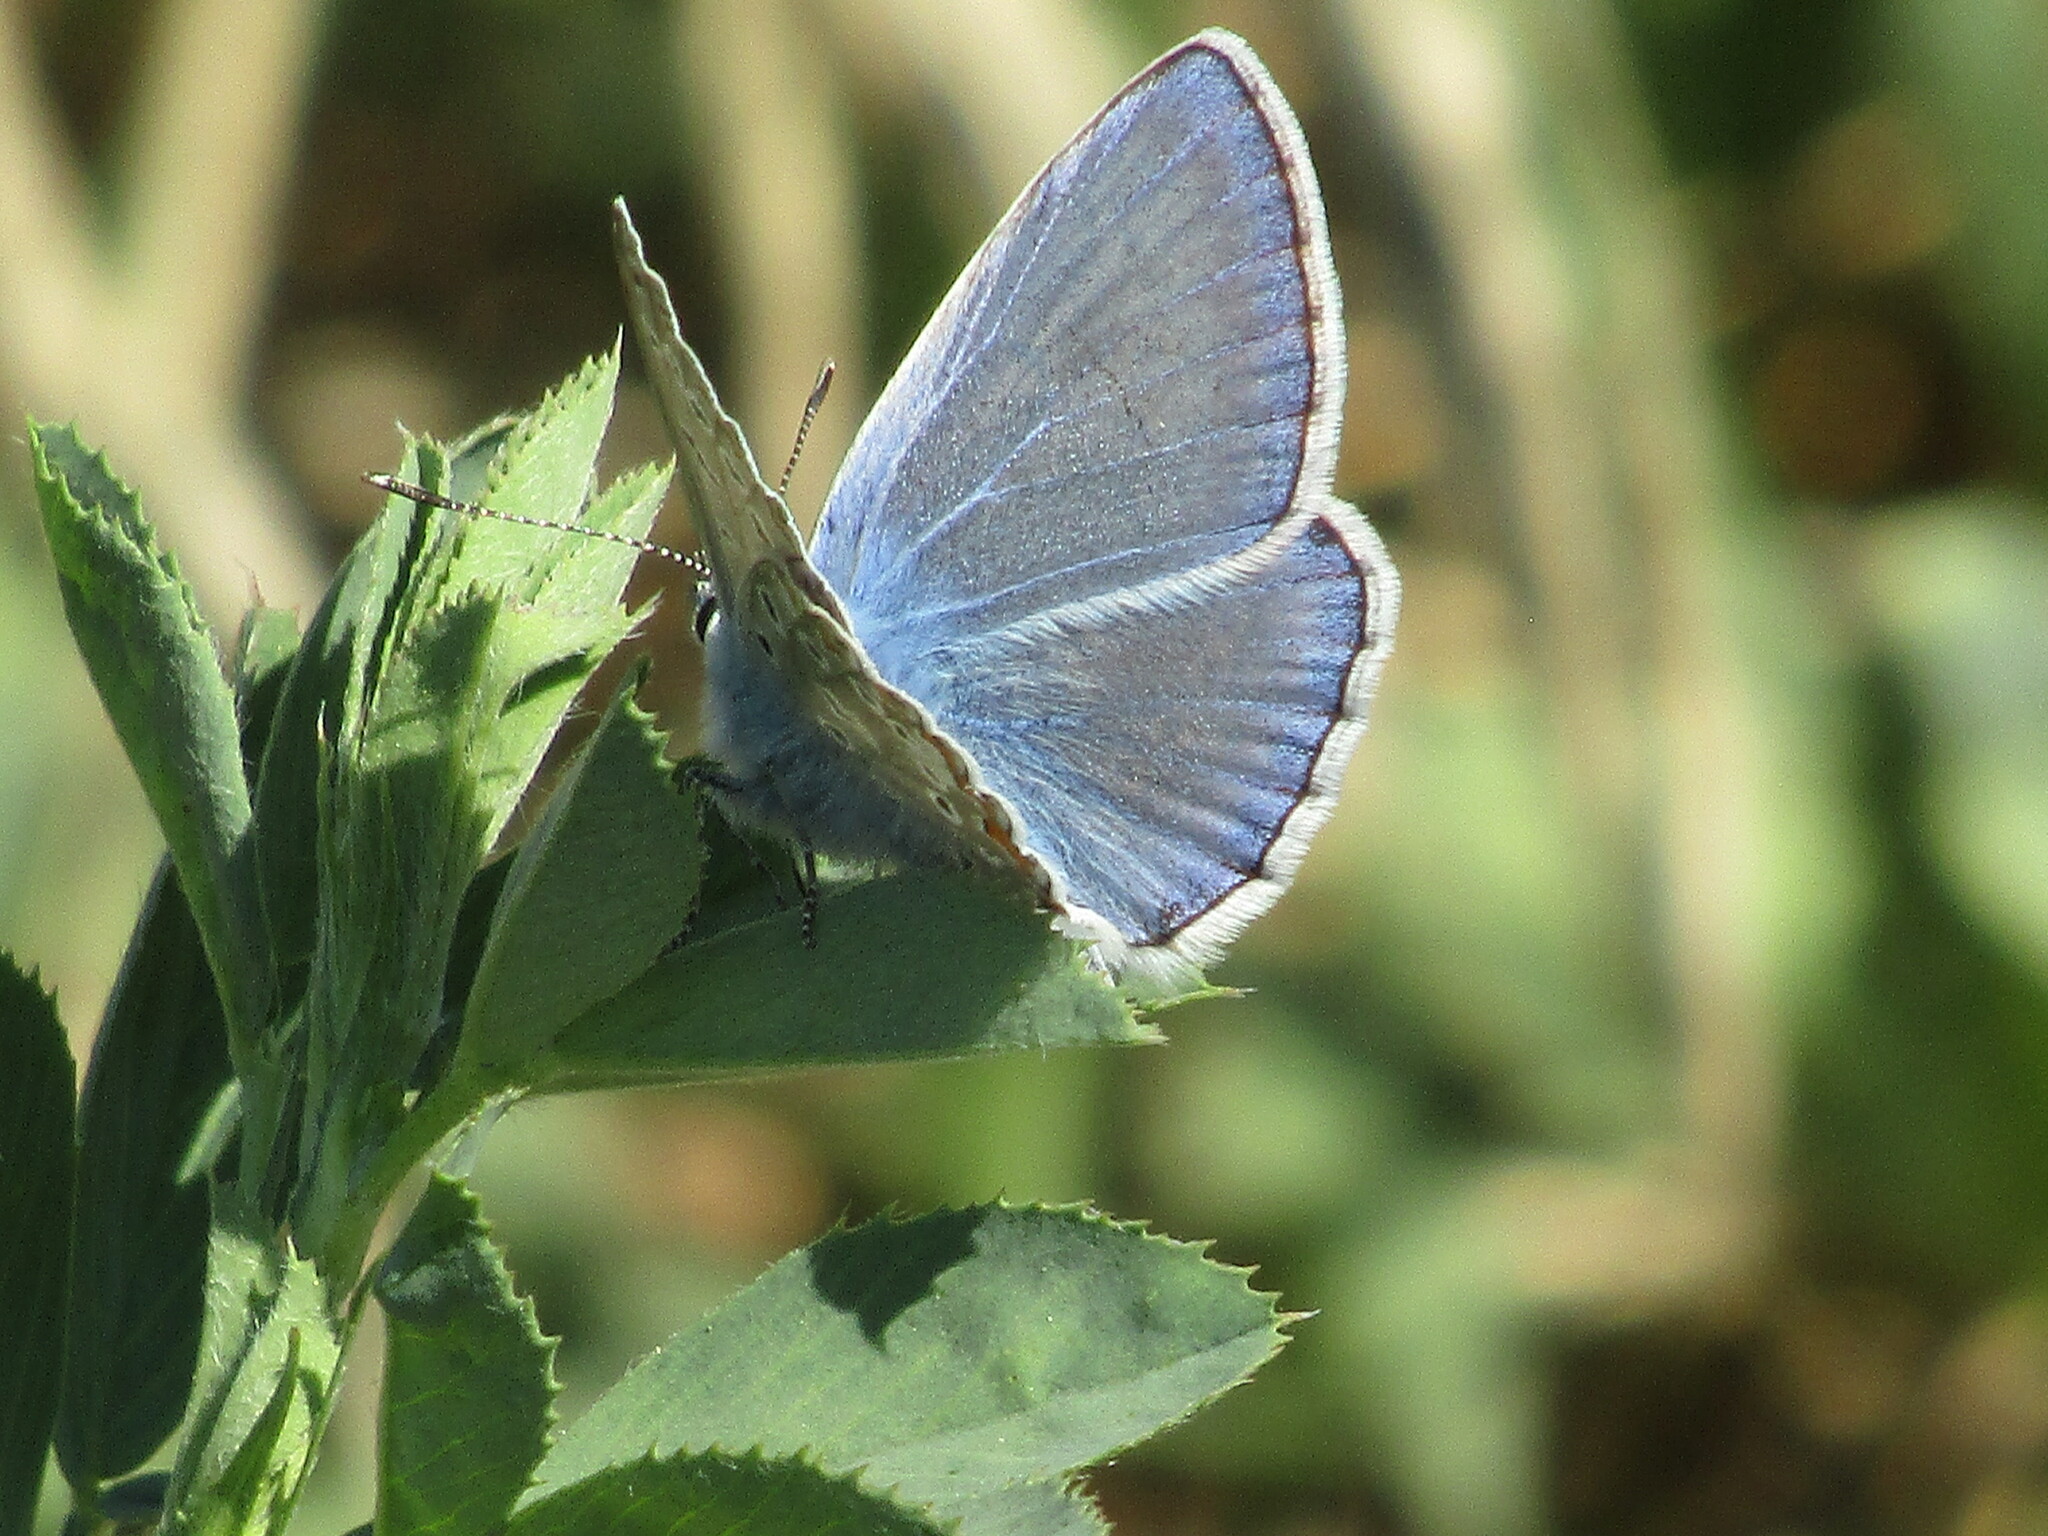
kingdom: Animalia
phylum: Arthropoda
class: Insecta
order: Lepidoptera
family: Lycaenidae
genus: Polyommatus
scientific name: Polyommatus icarus
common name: Common blue
